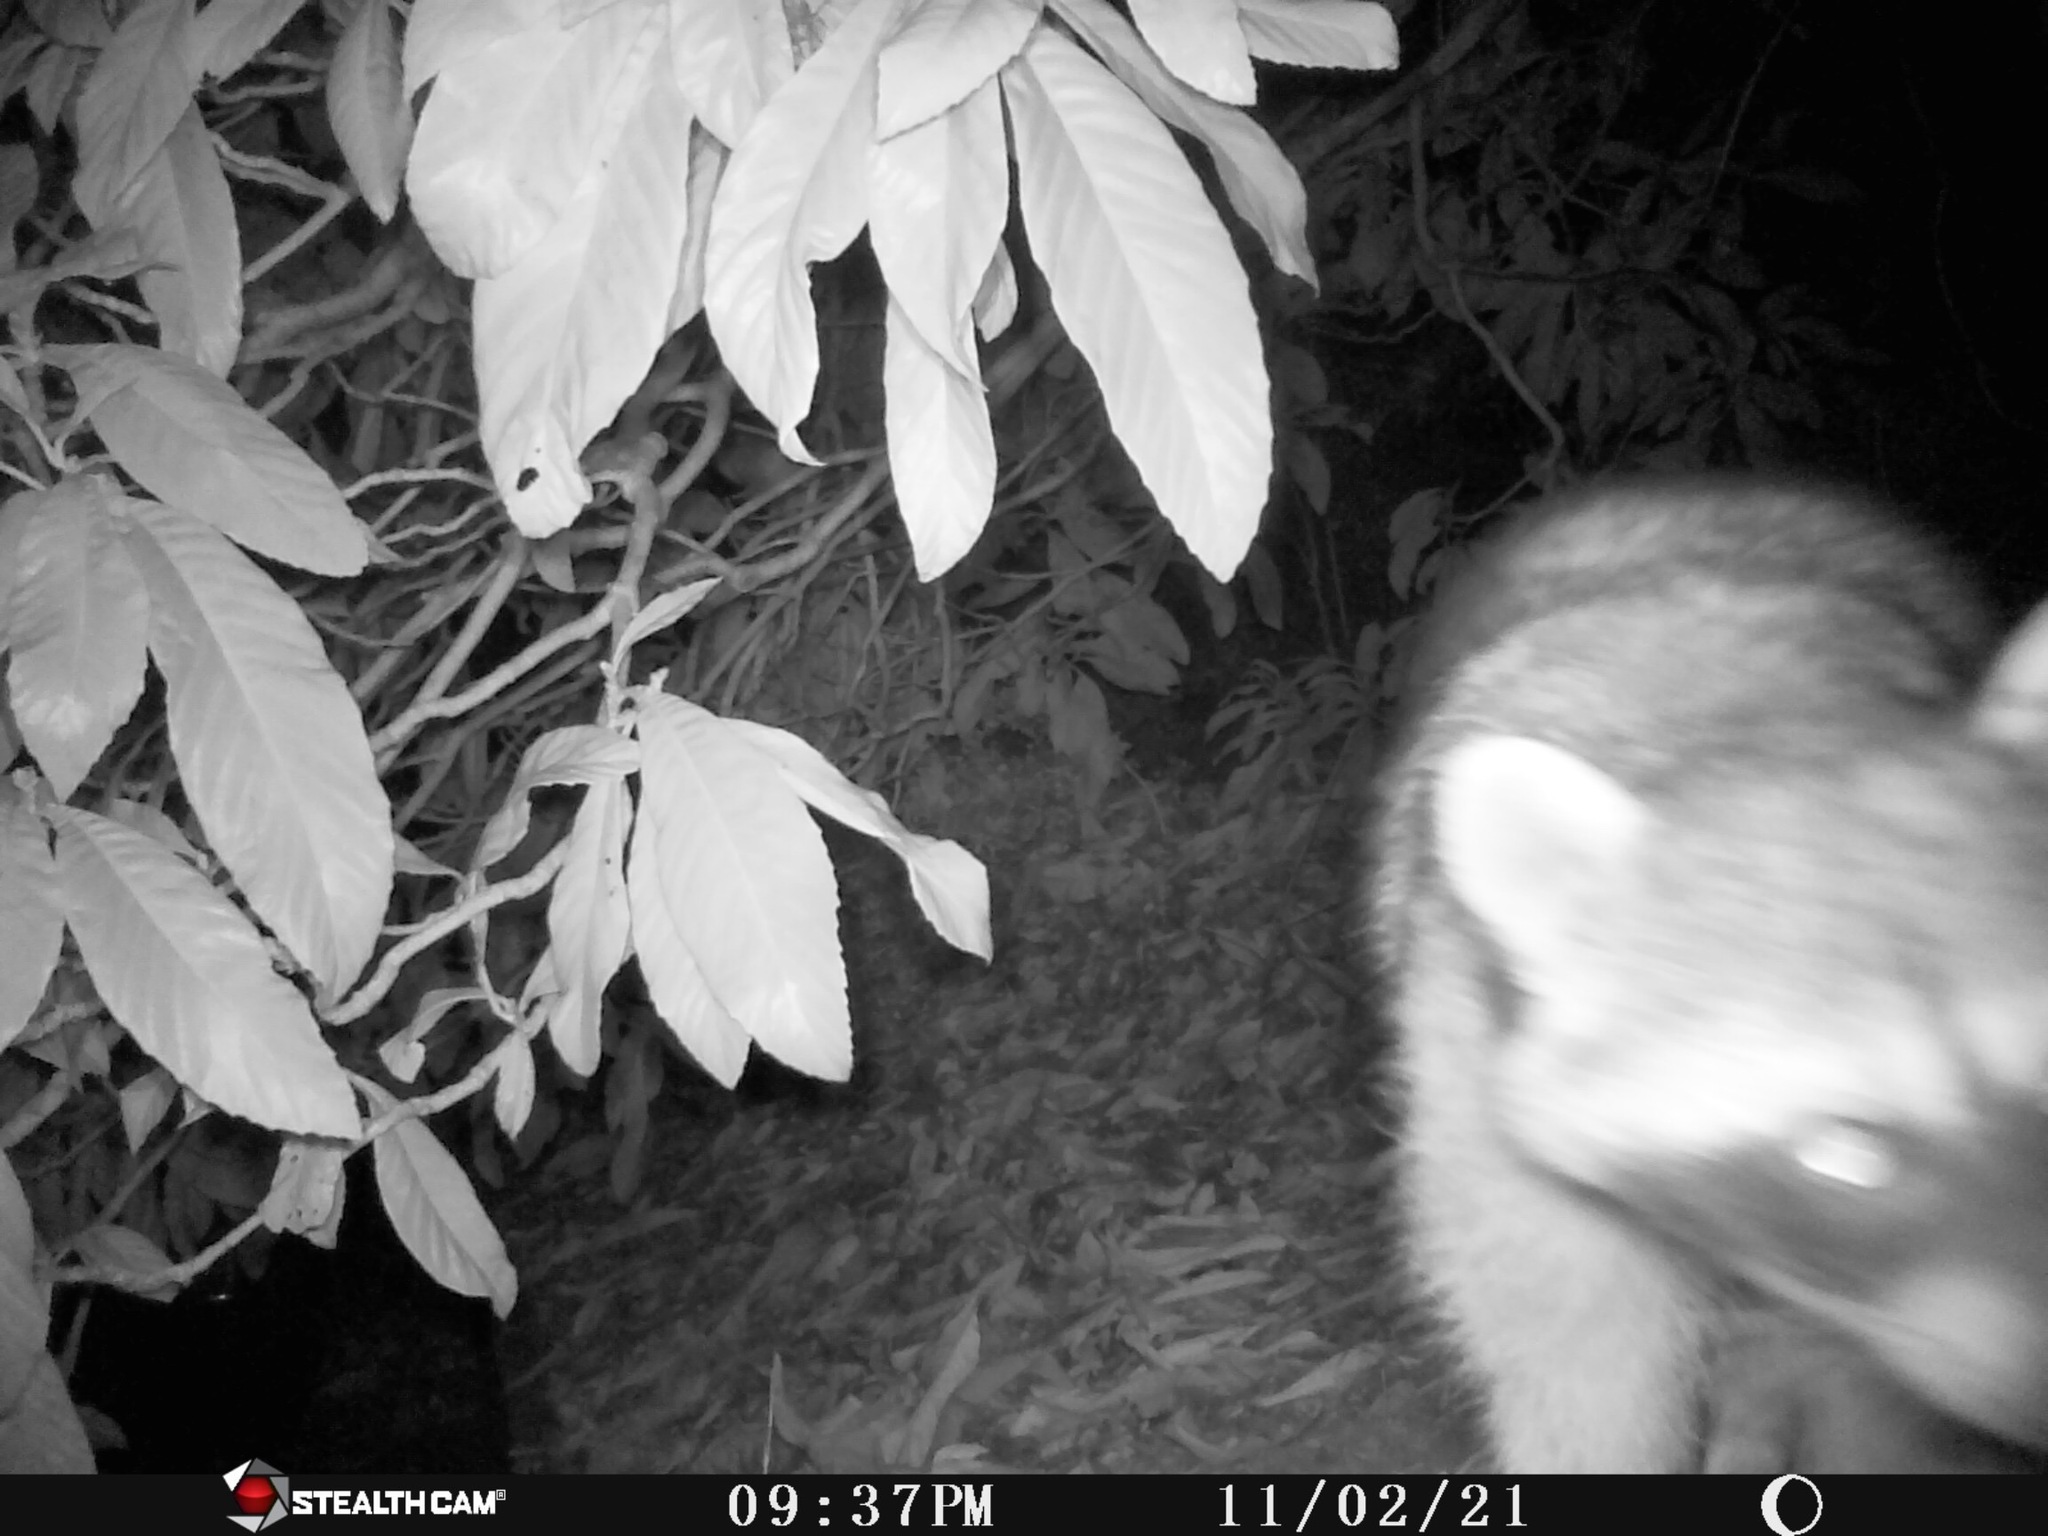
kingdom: Animalia
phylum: Chordata
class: Mammalia
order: Carnivora
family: Procyonidae
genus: Procyon
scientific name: Procyon lotor
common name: Raccoon
